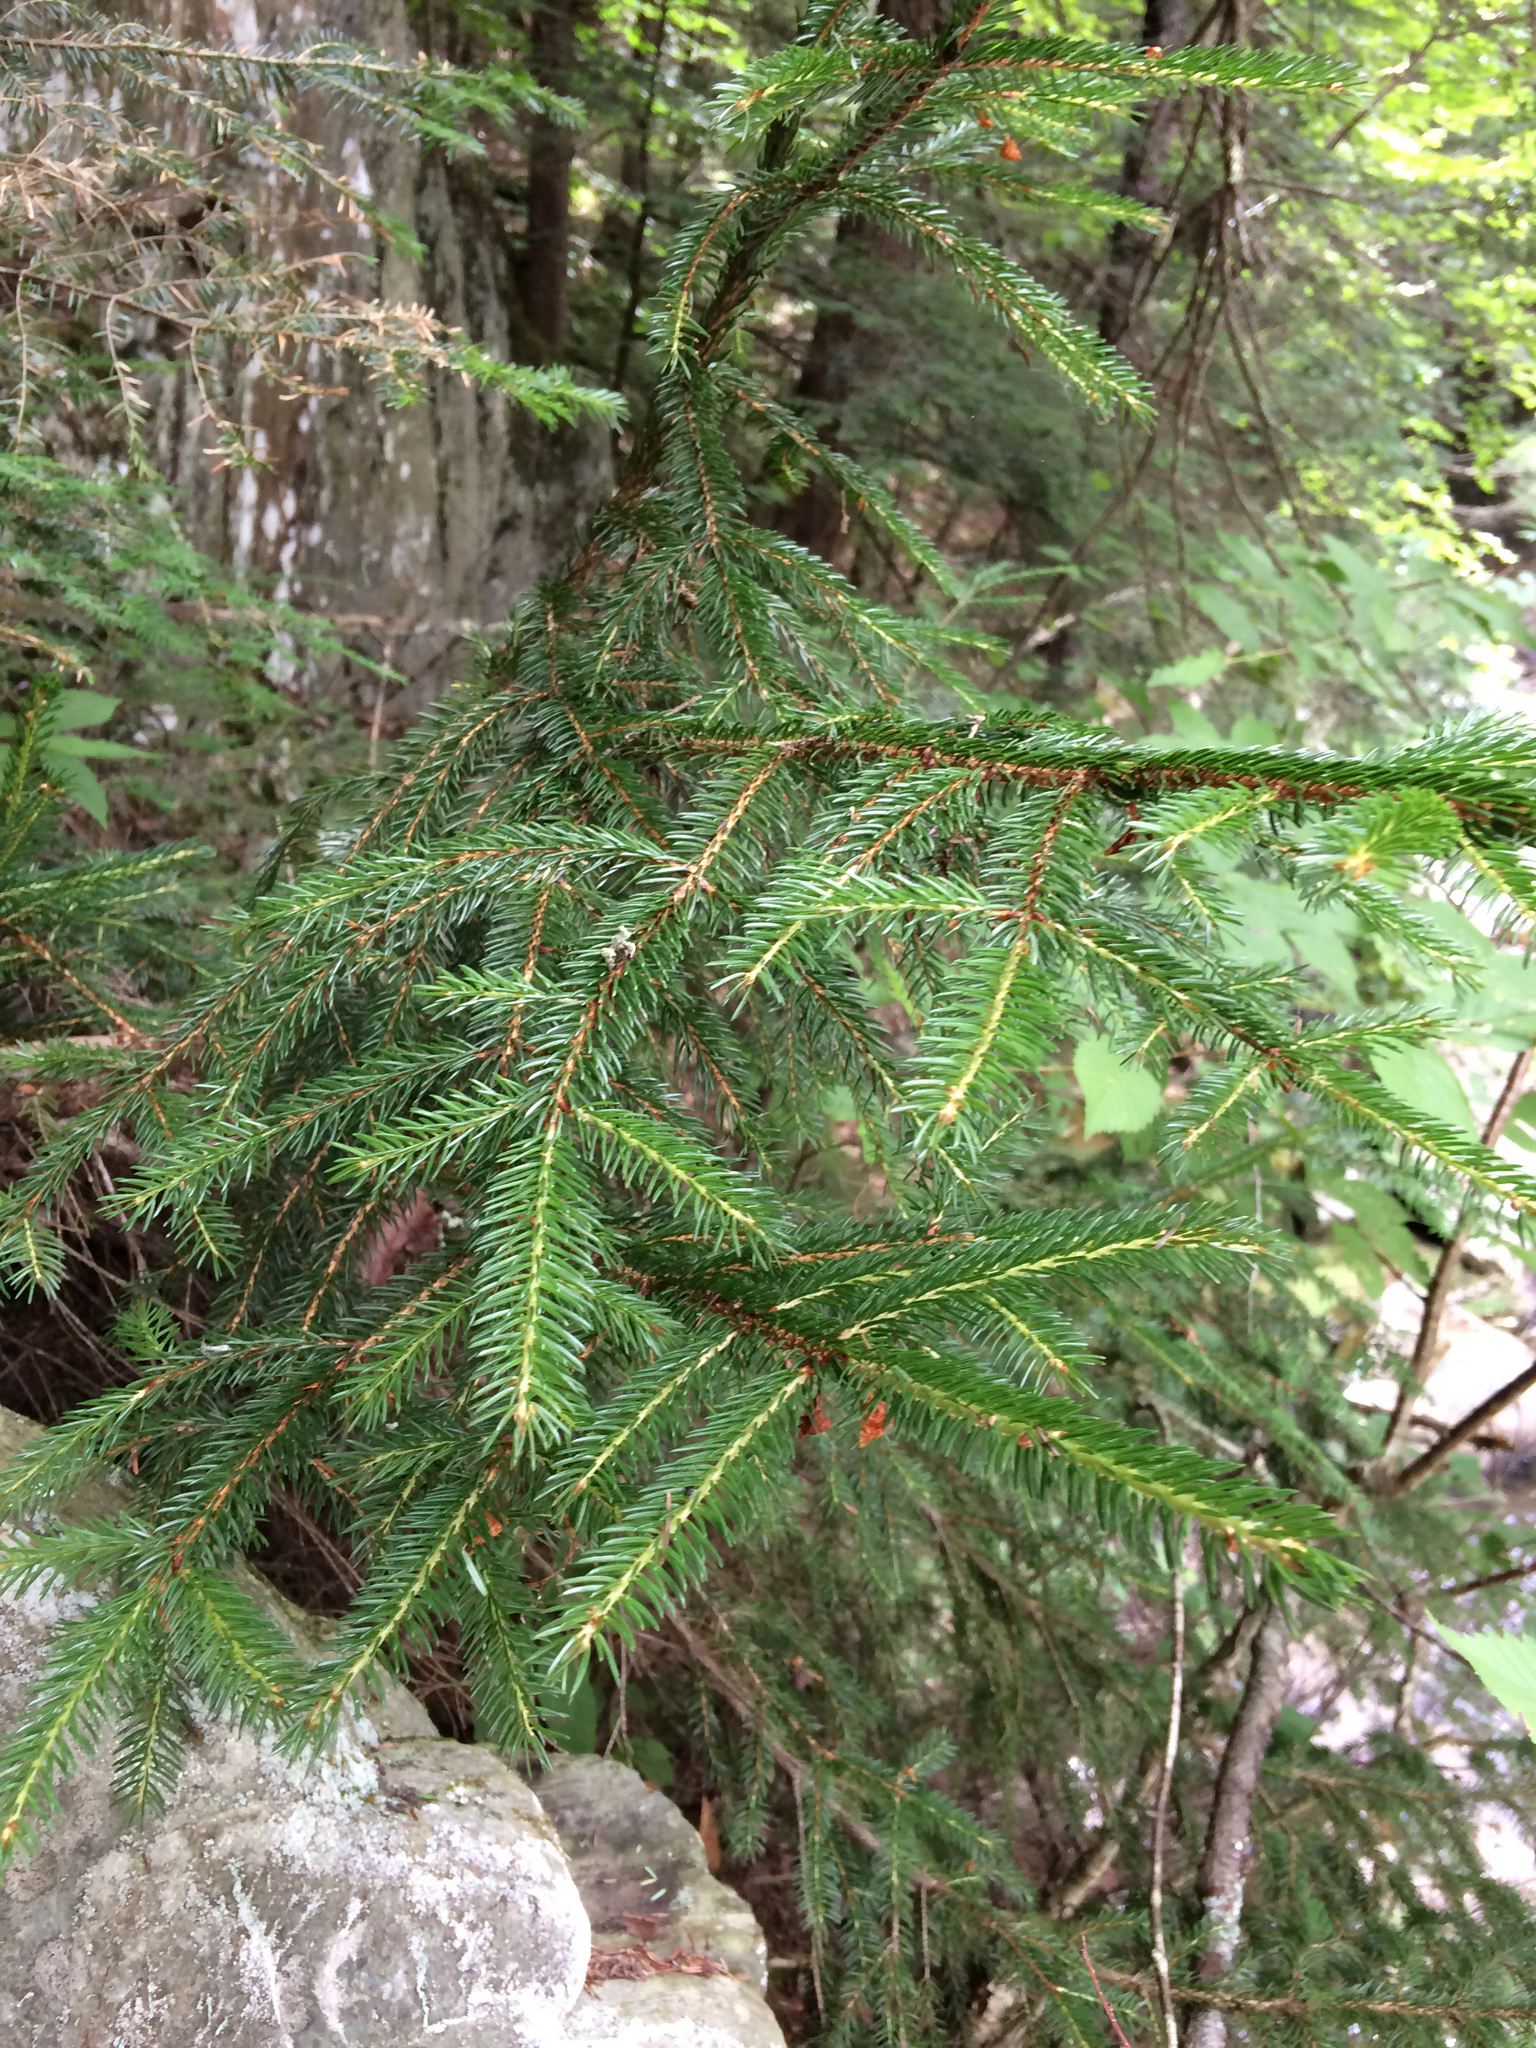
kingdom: Plantae
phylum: Tracheophyta
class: Pinopsida
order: Pinales
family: Pinaceae
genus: Picea
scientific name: Picea rubens
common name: Red spruce
